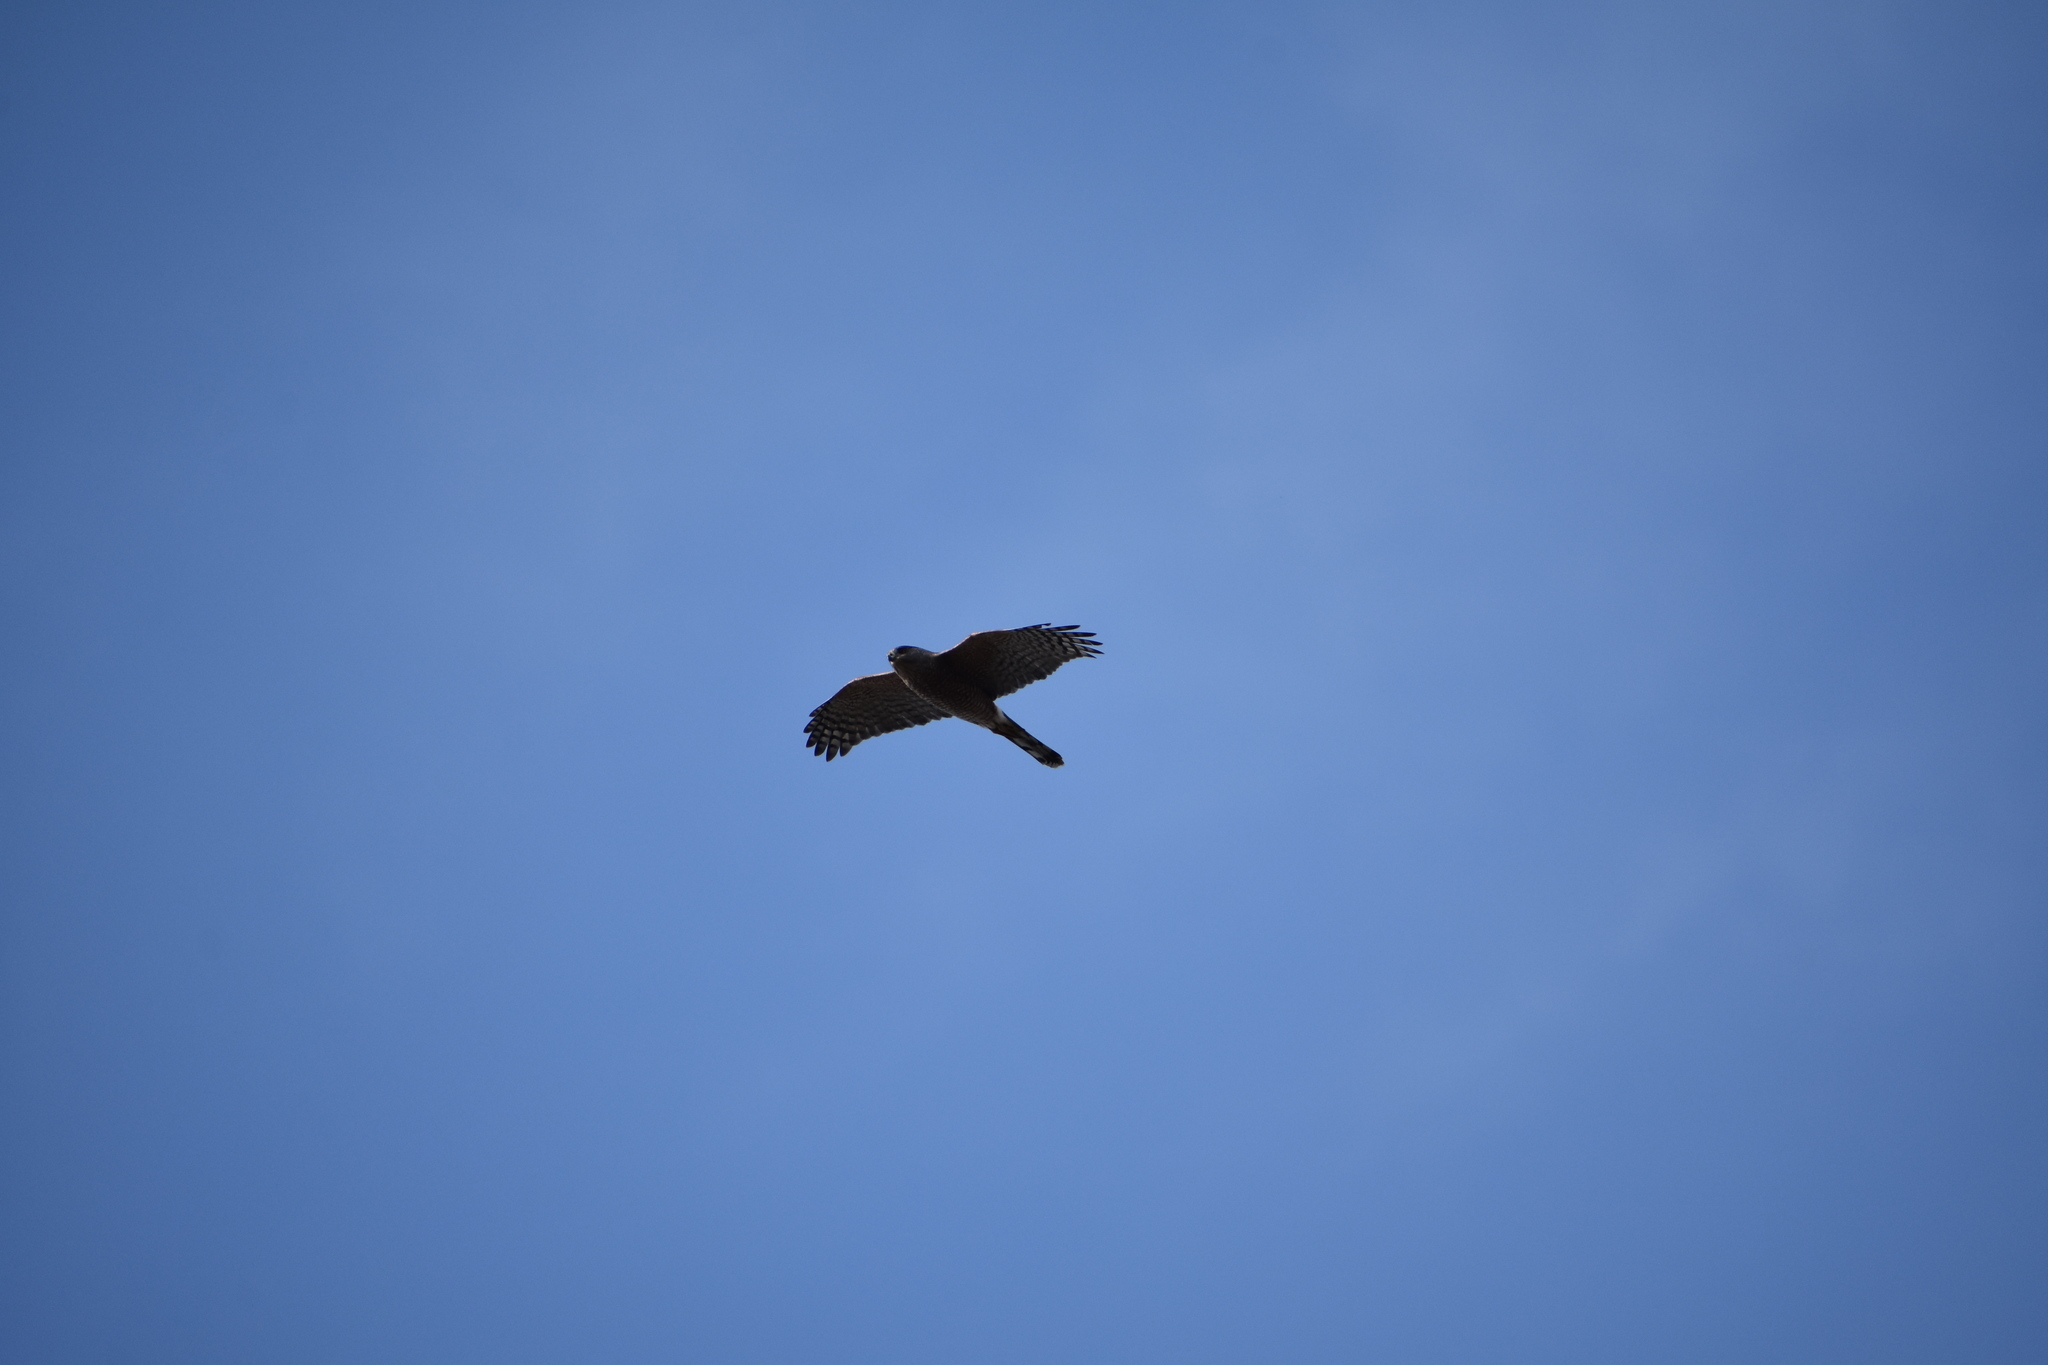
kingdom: Animalia
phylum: Chordata
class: Aves
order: Accipitriformes
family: Accipitridae
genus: Accipiter
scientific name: Accipiter cooperii
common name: Cooper's hawk
